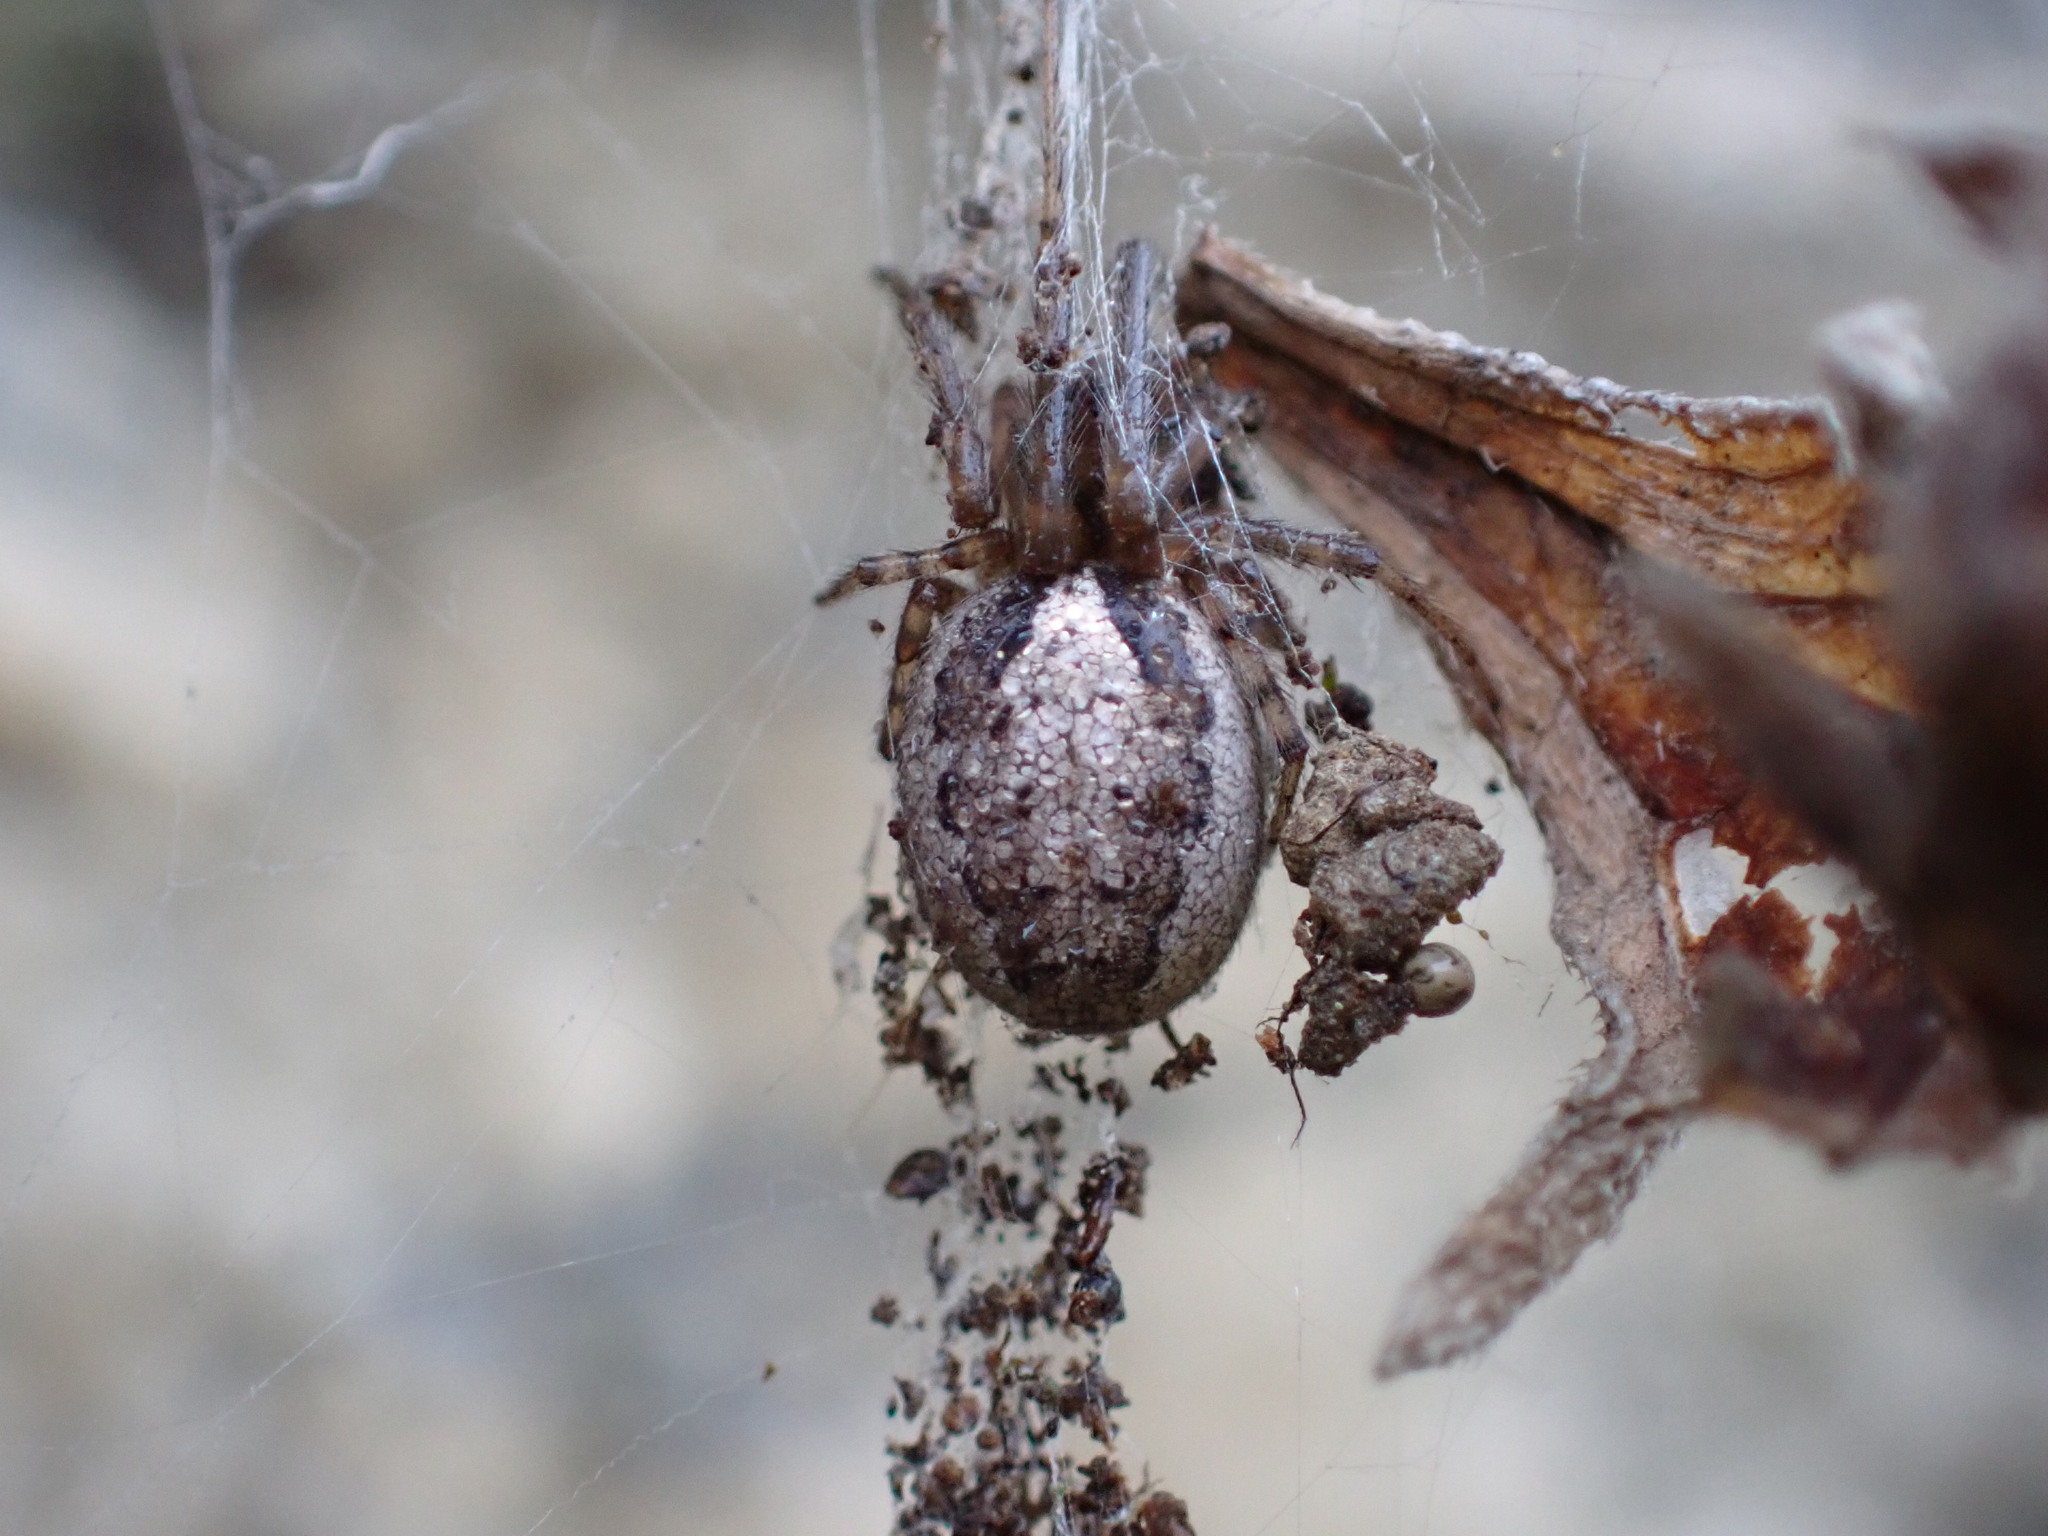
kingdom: Animalia
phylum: Arthropoda
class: Arachnida
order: Araneae
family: Araneidae
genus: Zygiella
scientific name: Zygiella x-notata
